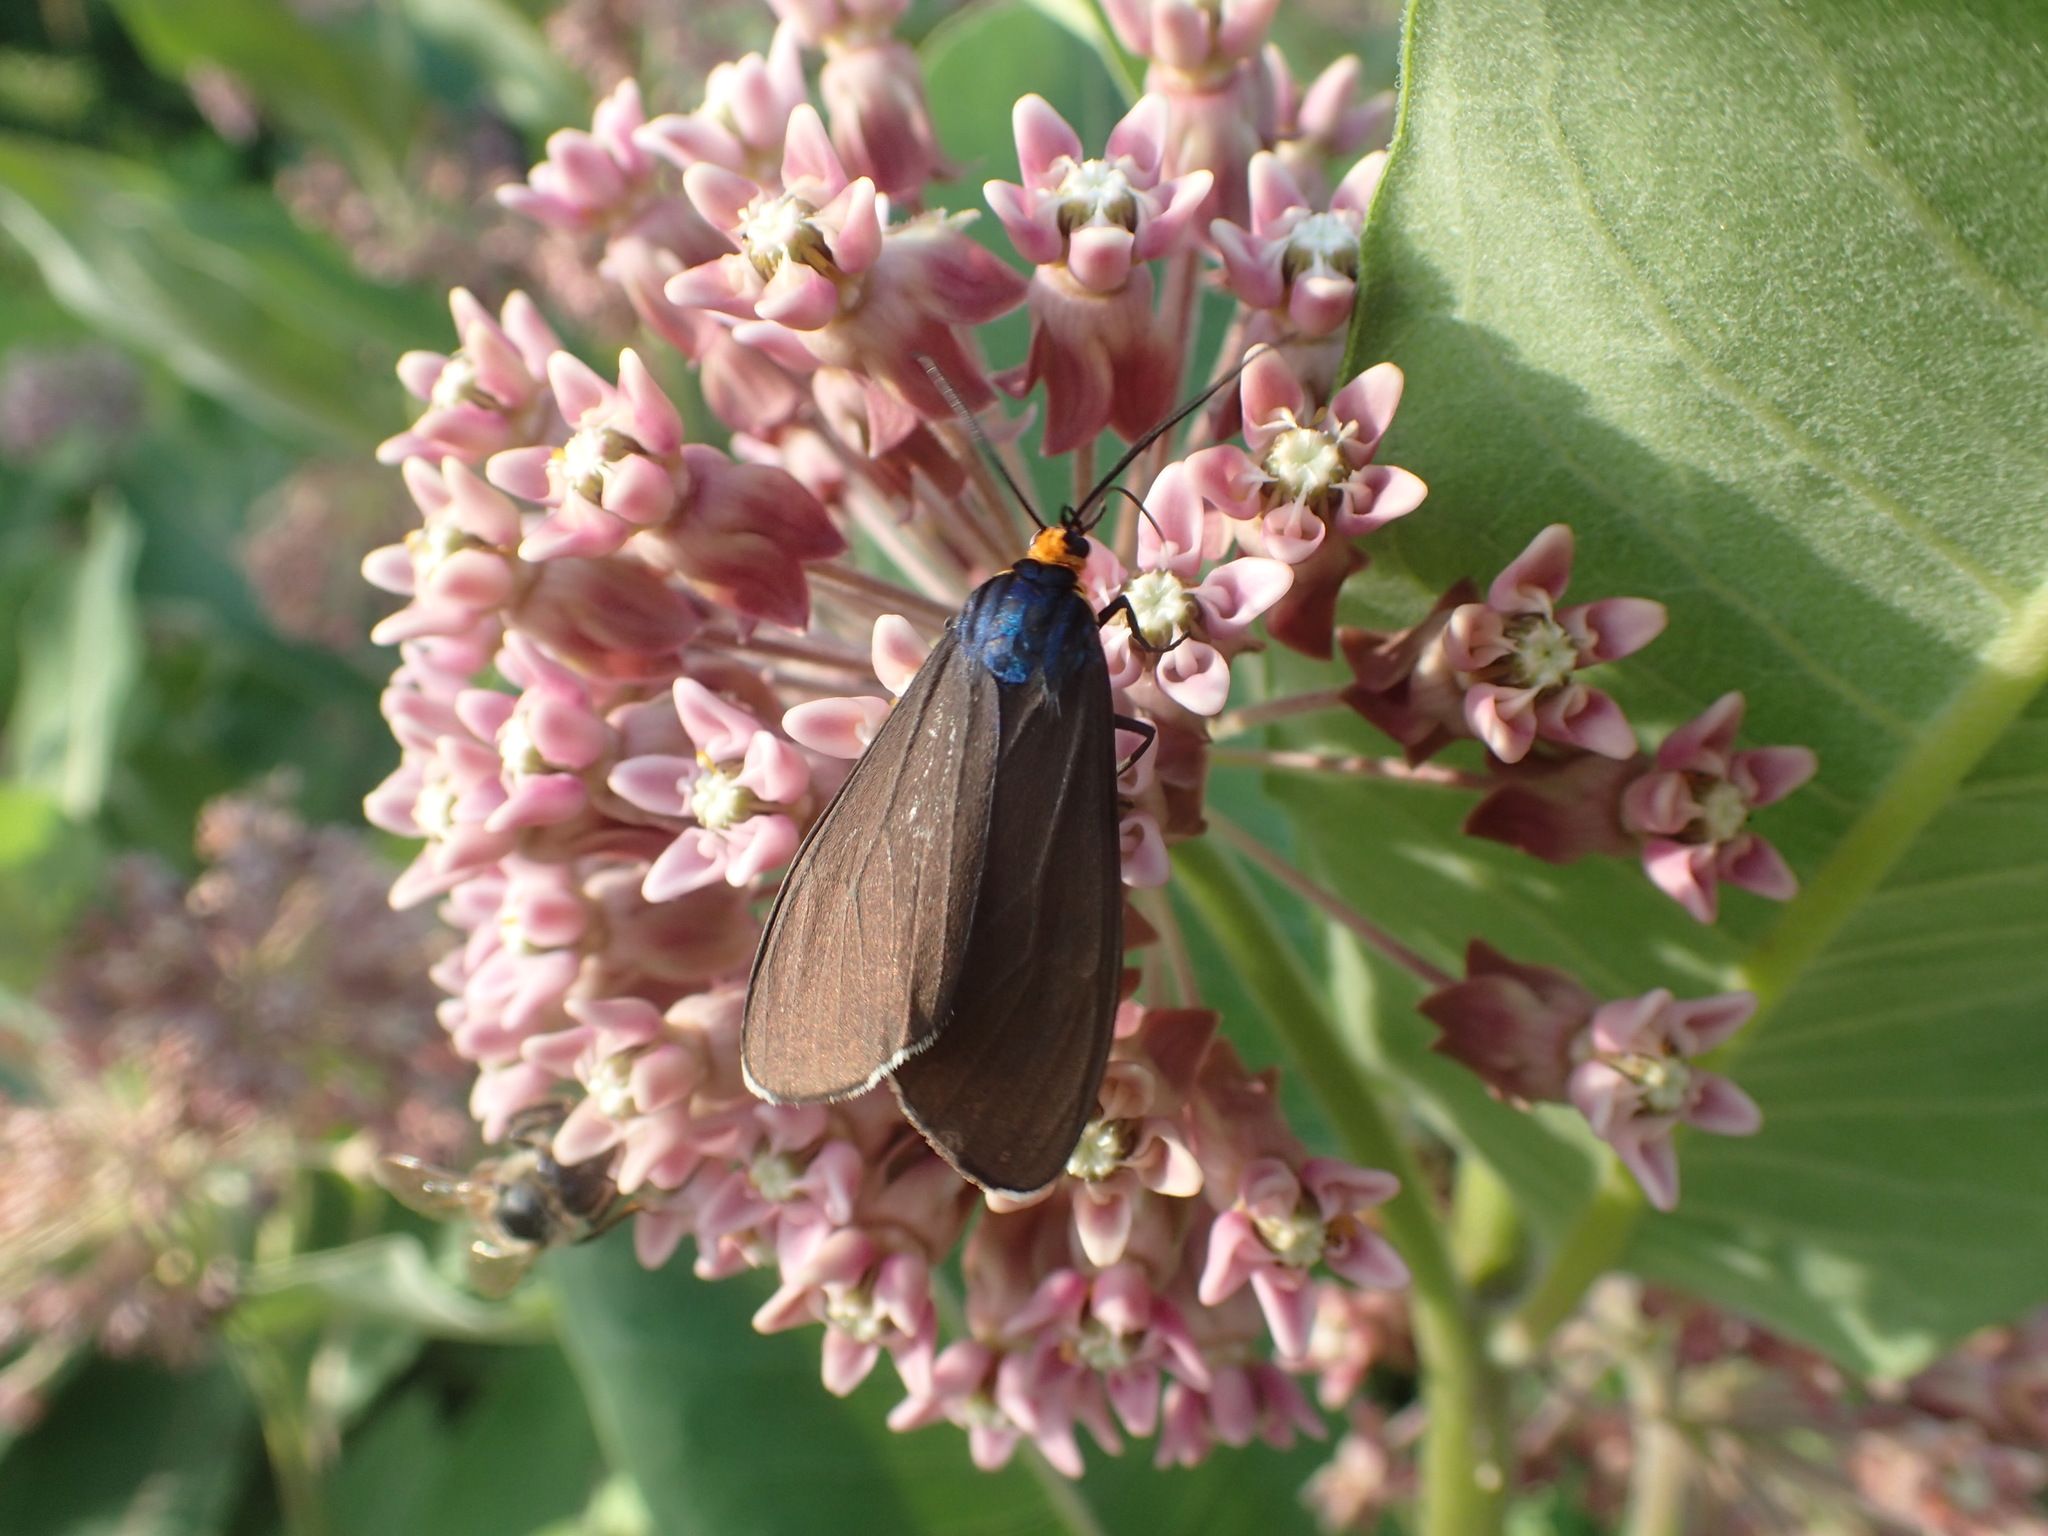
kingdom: Animalia
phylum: Arthropoda
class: Insecta
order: Lepidoptera
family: Erebidae
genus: Ctenucha
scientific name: Ctenucha virginica
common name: Virginia ctenucha moth
